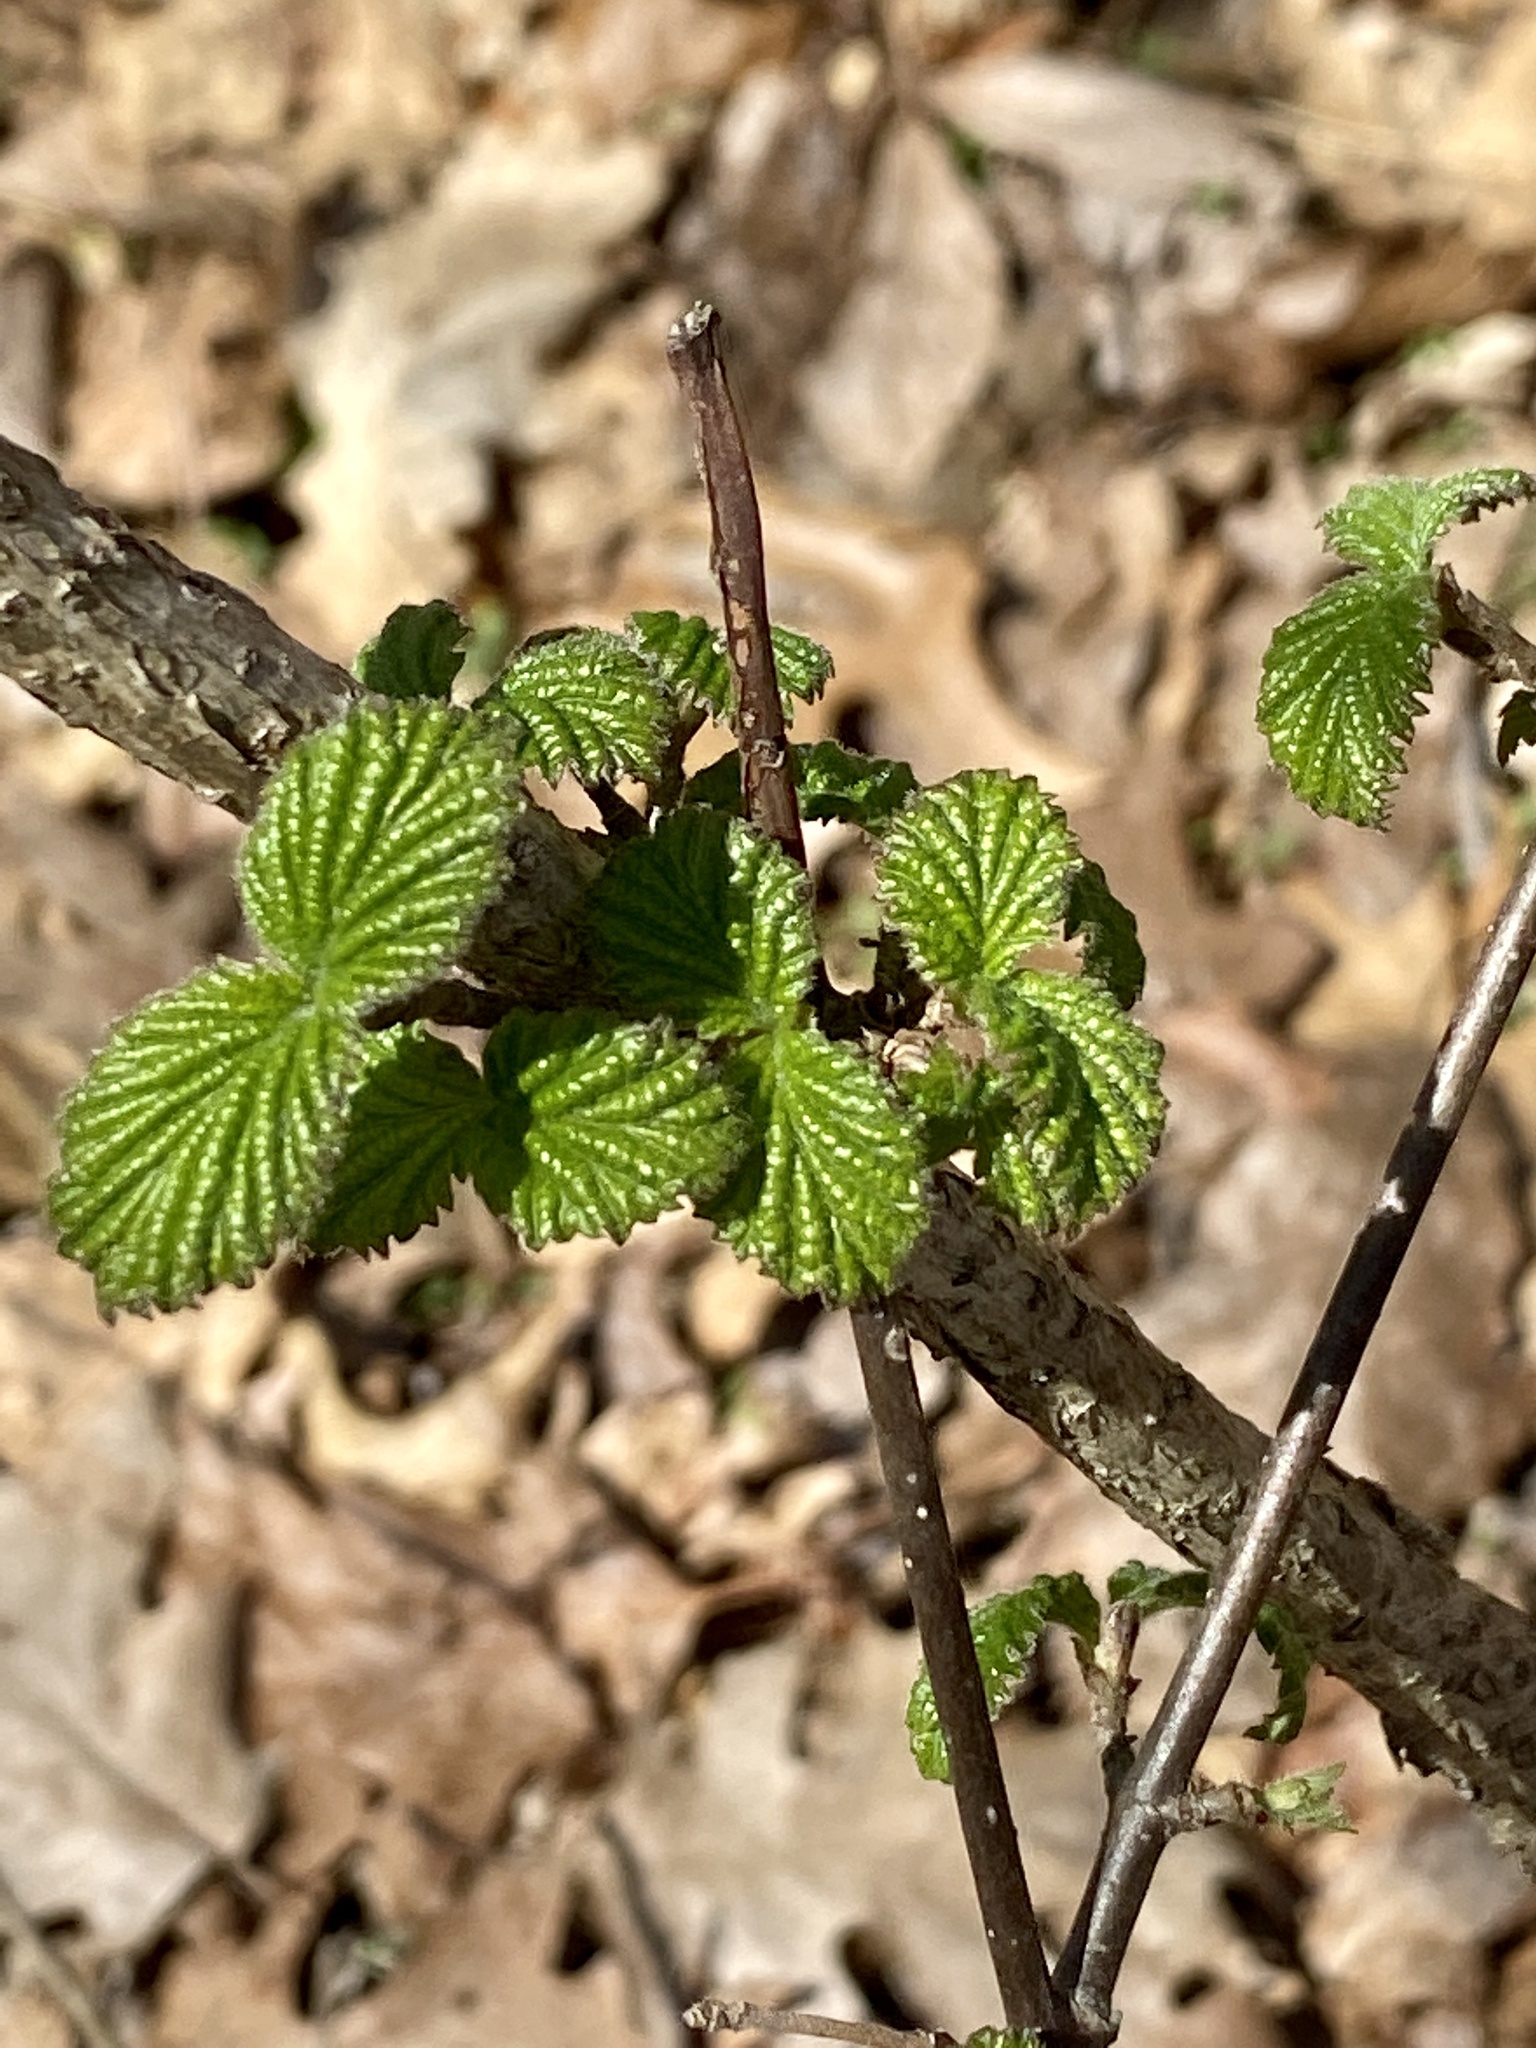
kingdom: Plantae
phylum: Tracheophyta
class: Magnoliopsida
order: Dipsacales
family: Viburnaceae
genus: Viburnum
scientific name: Viburnum dilatatum
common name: Linden arrowwood
